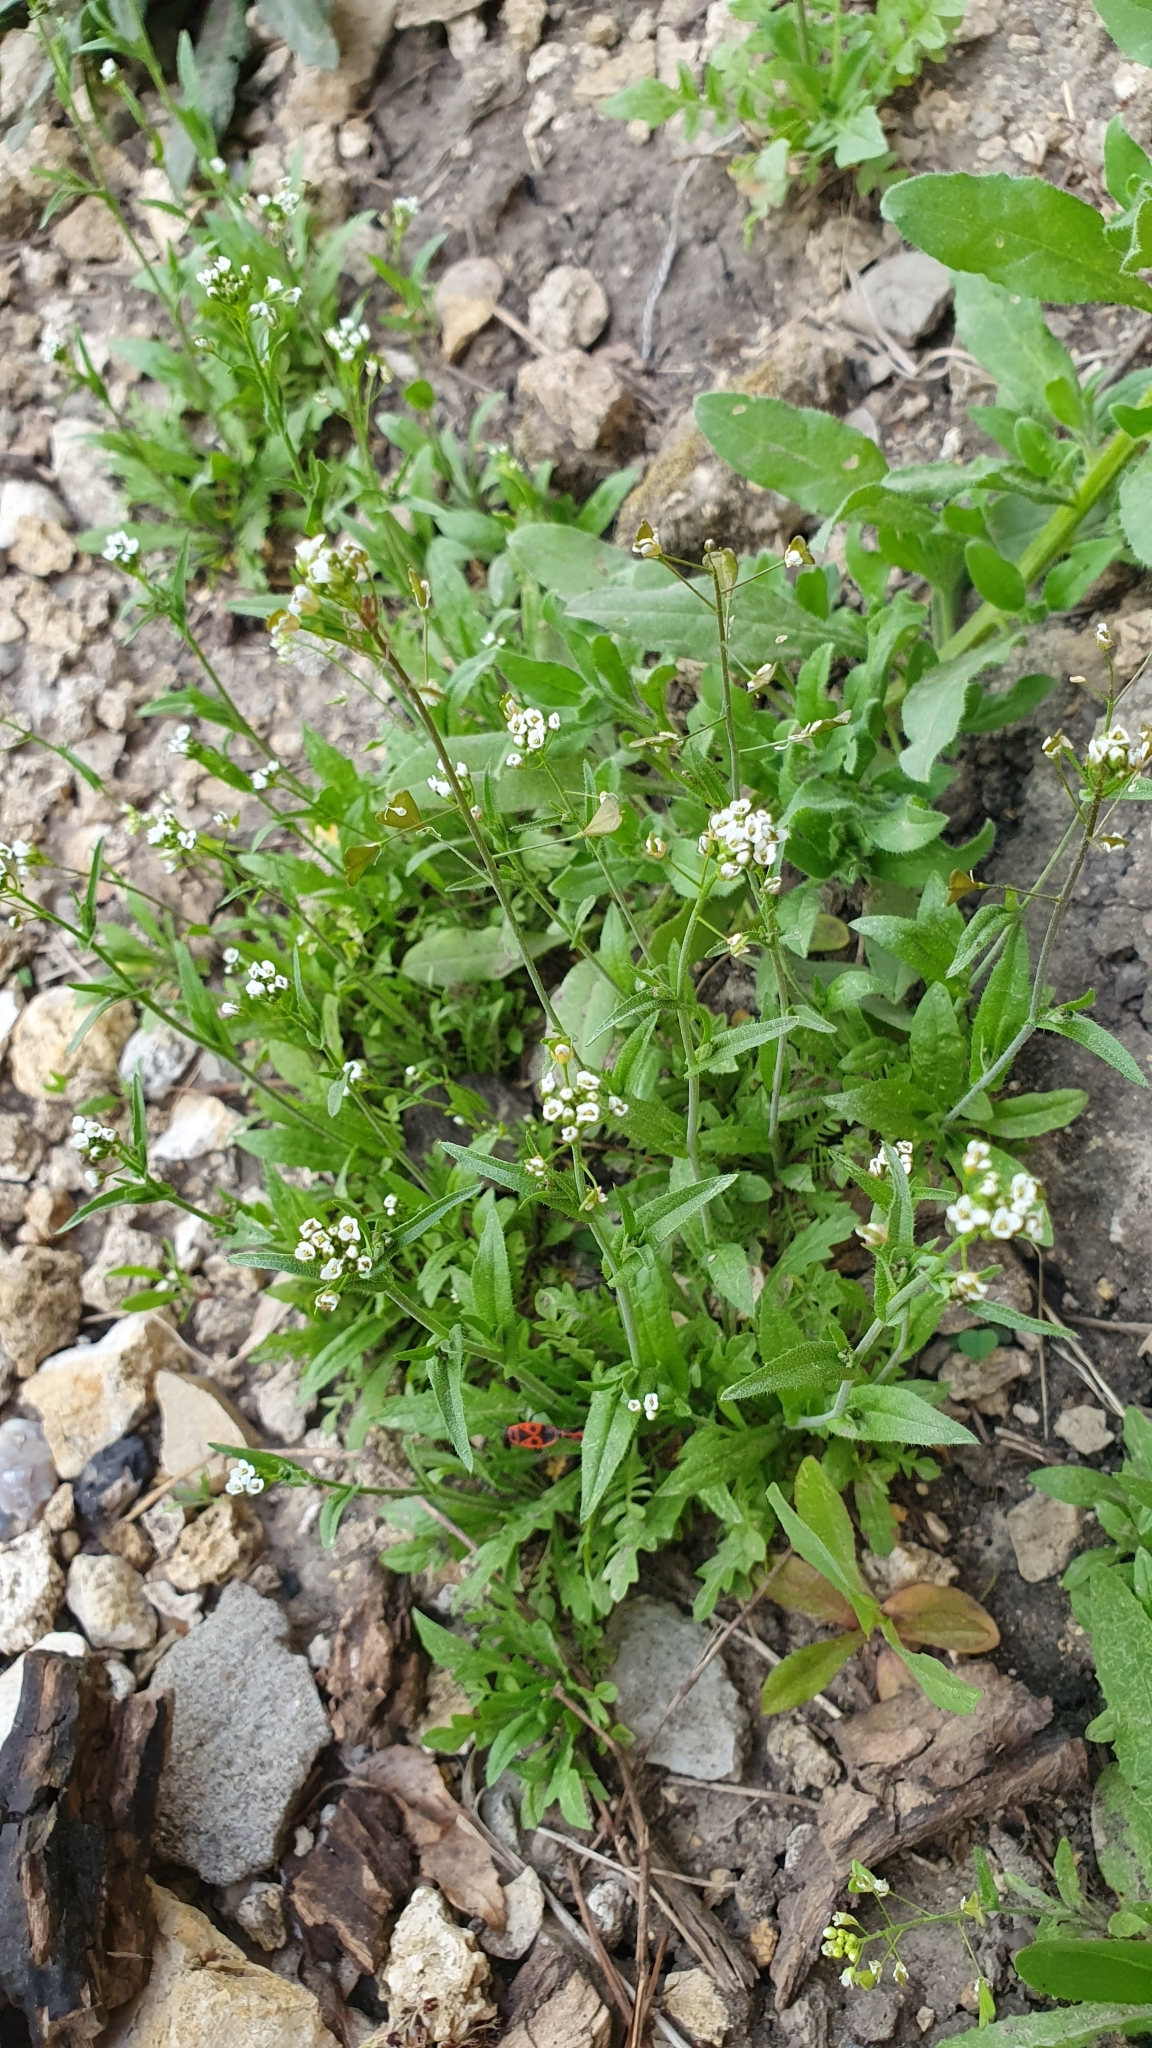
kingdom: Plantae
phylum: Tracheophyta
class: Magnoliopsida
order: Brassicales
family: Brassicaceae
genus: Capsella
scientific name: Capsella bursa-pastoris
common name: Shepherd's purse
